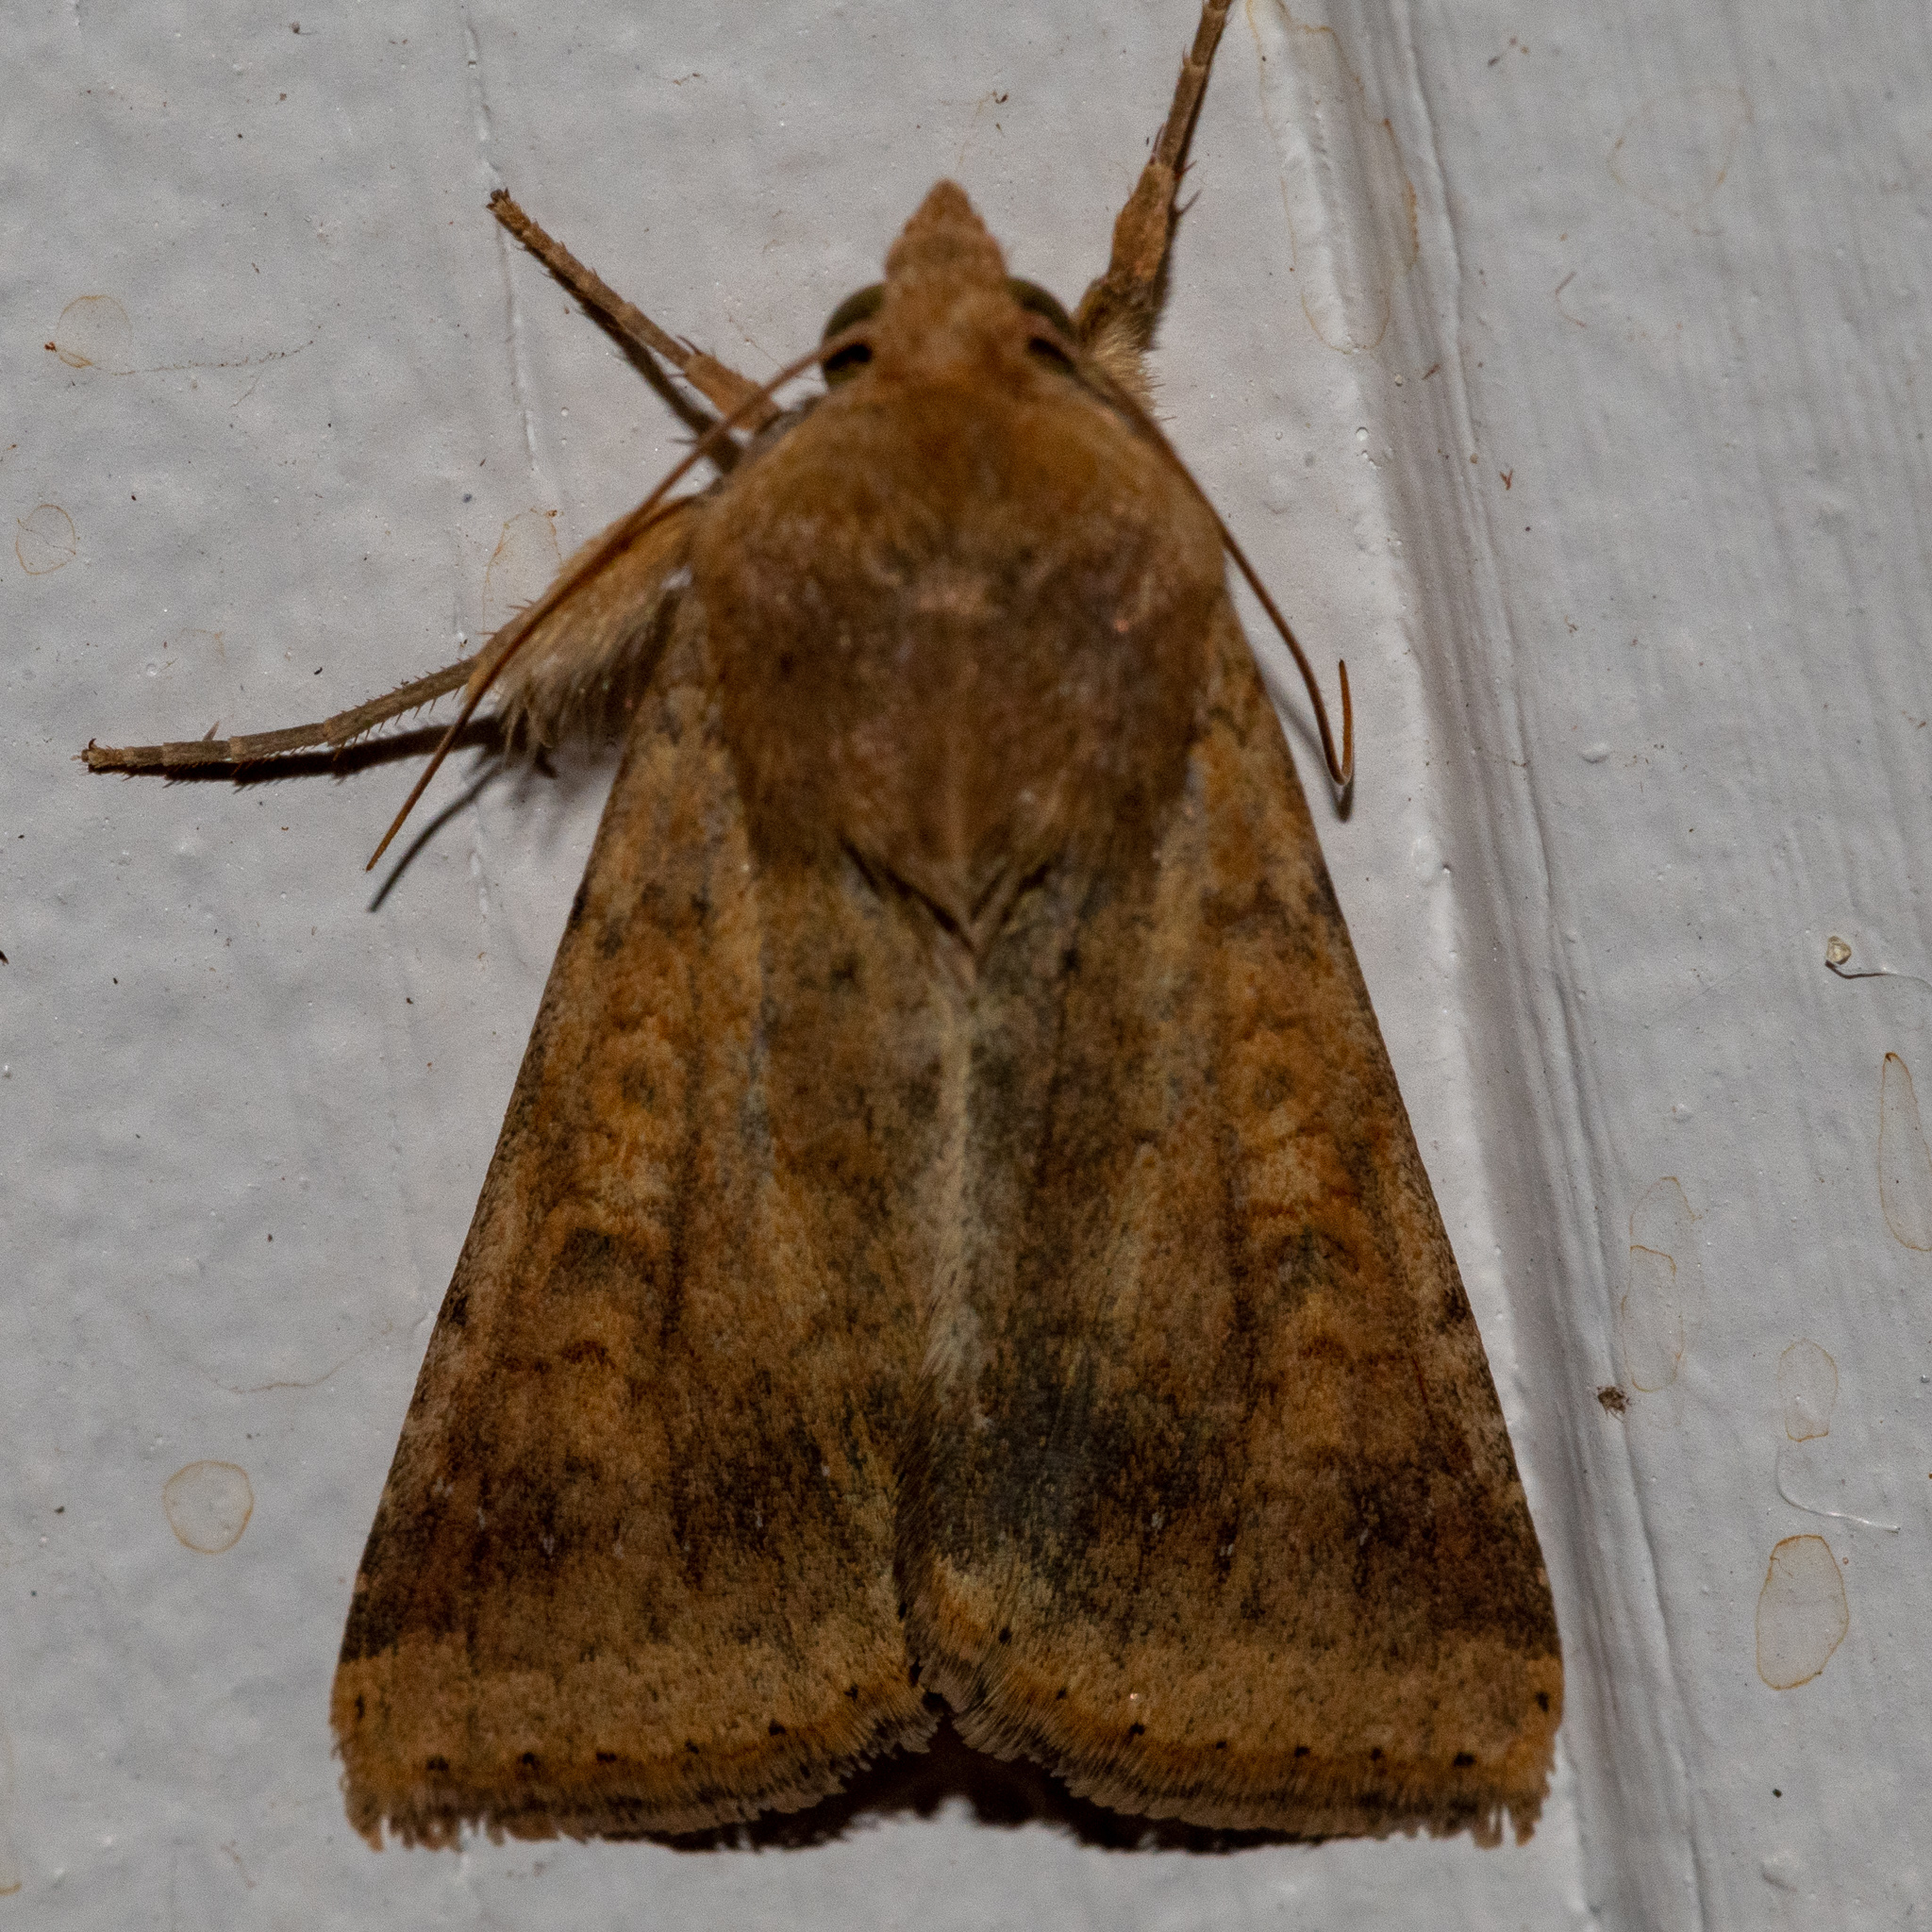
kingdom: Animalia
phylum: Arthropoda
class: Insecta
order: Lepidoptera
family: Noctuidae
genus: Helicoverpa
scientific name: Helicoverpa zea
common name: Bollworm
